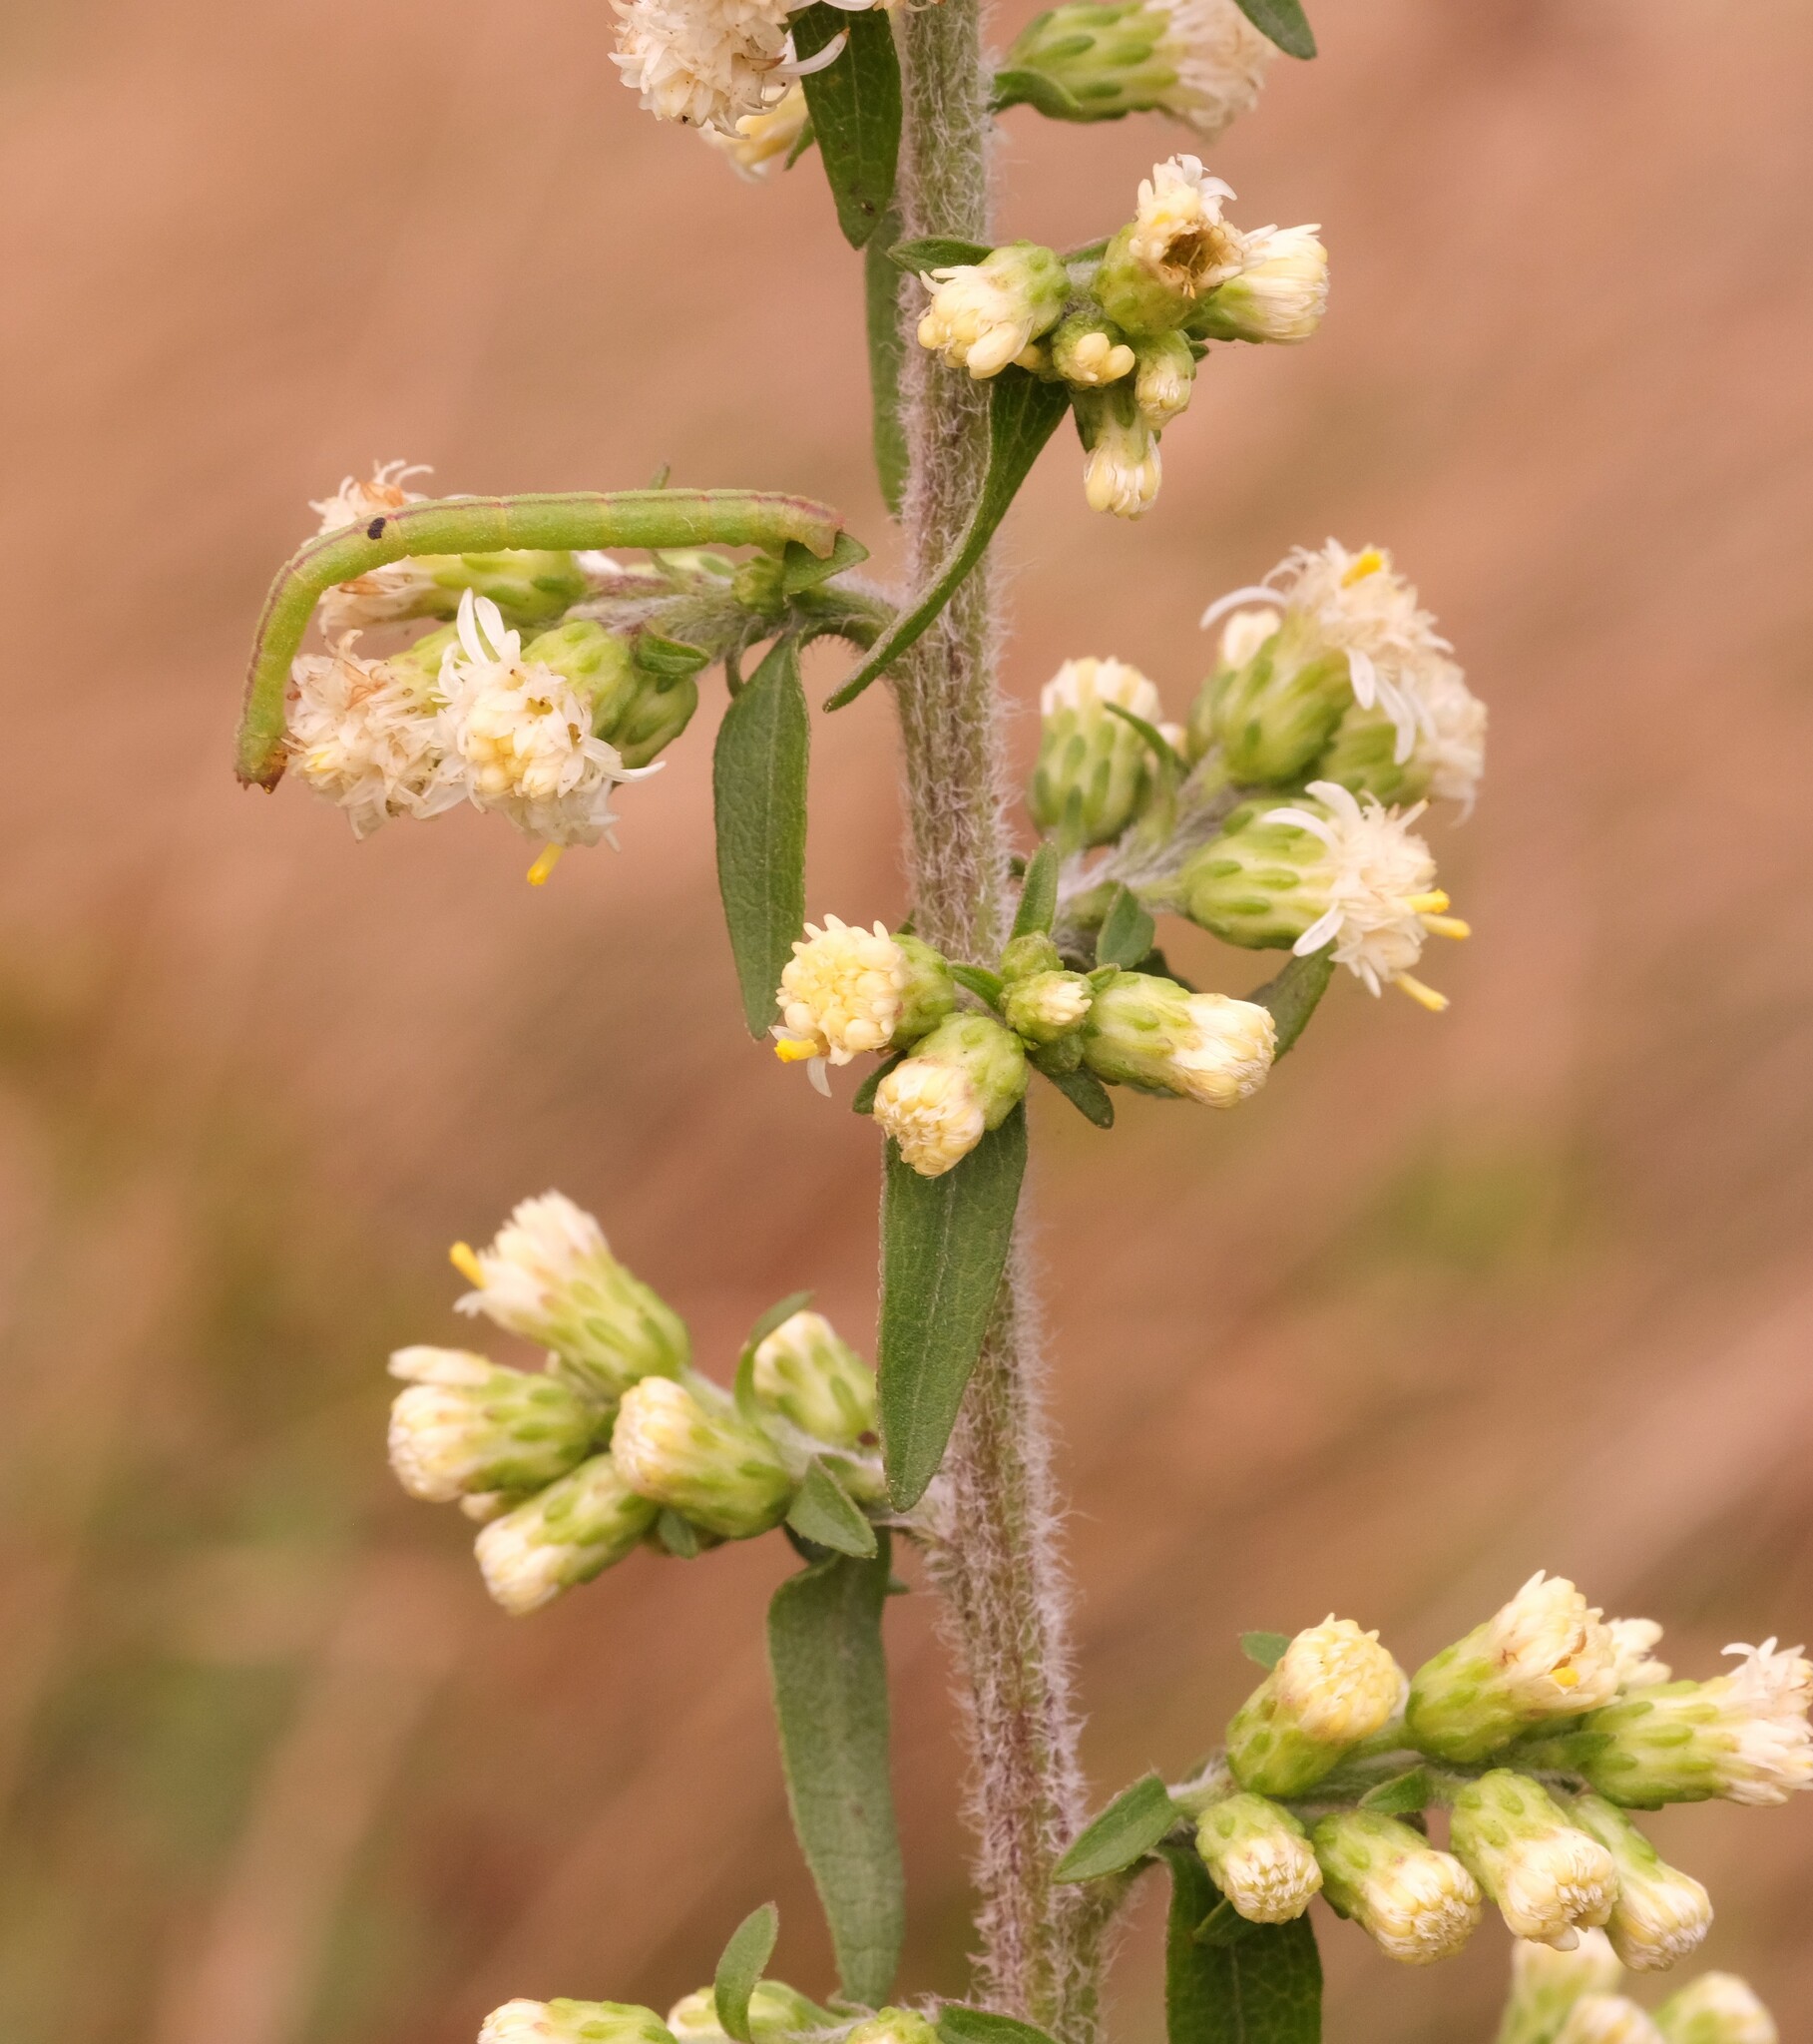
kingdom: Plantae
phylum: Tracheophyta
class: Magnoliopsida
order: Asterales
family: Asteraceae
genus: Solidago
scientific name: Solidago bicolor
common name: Silverrod
